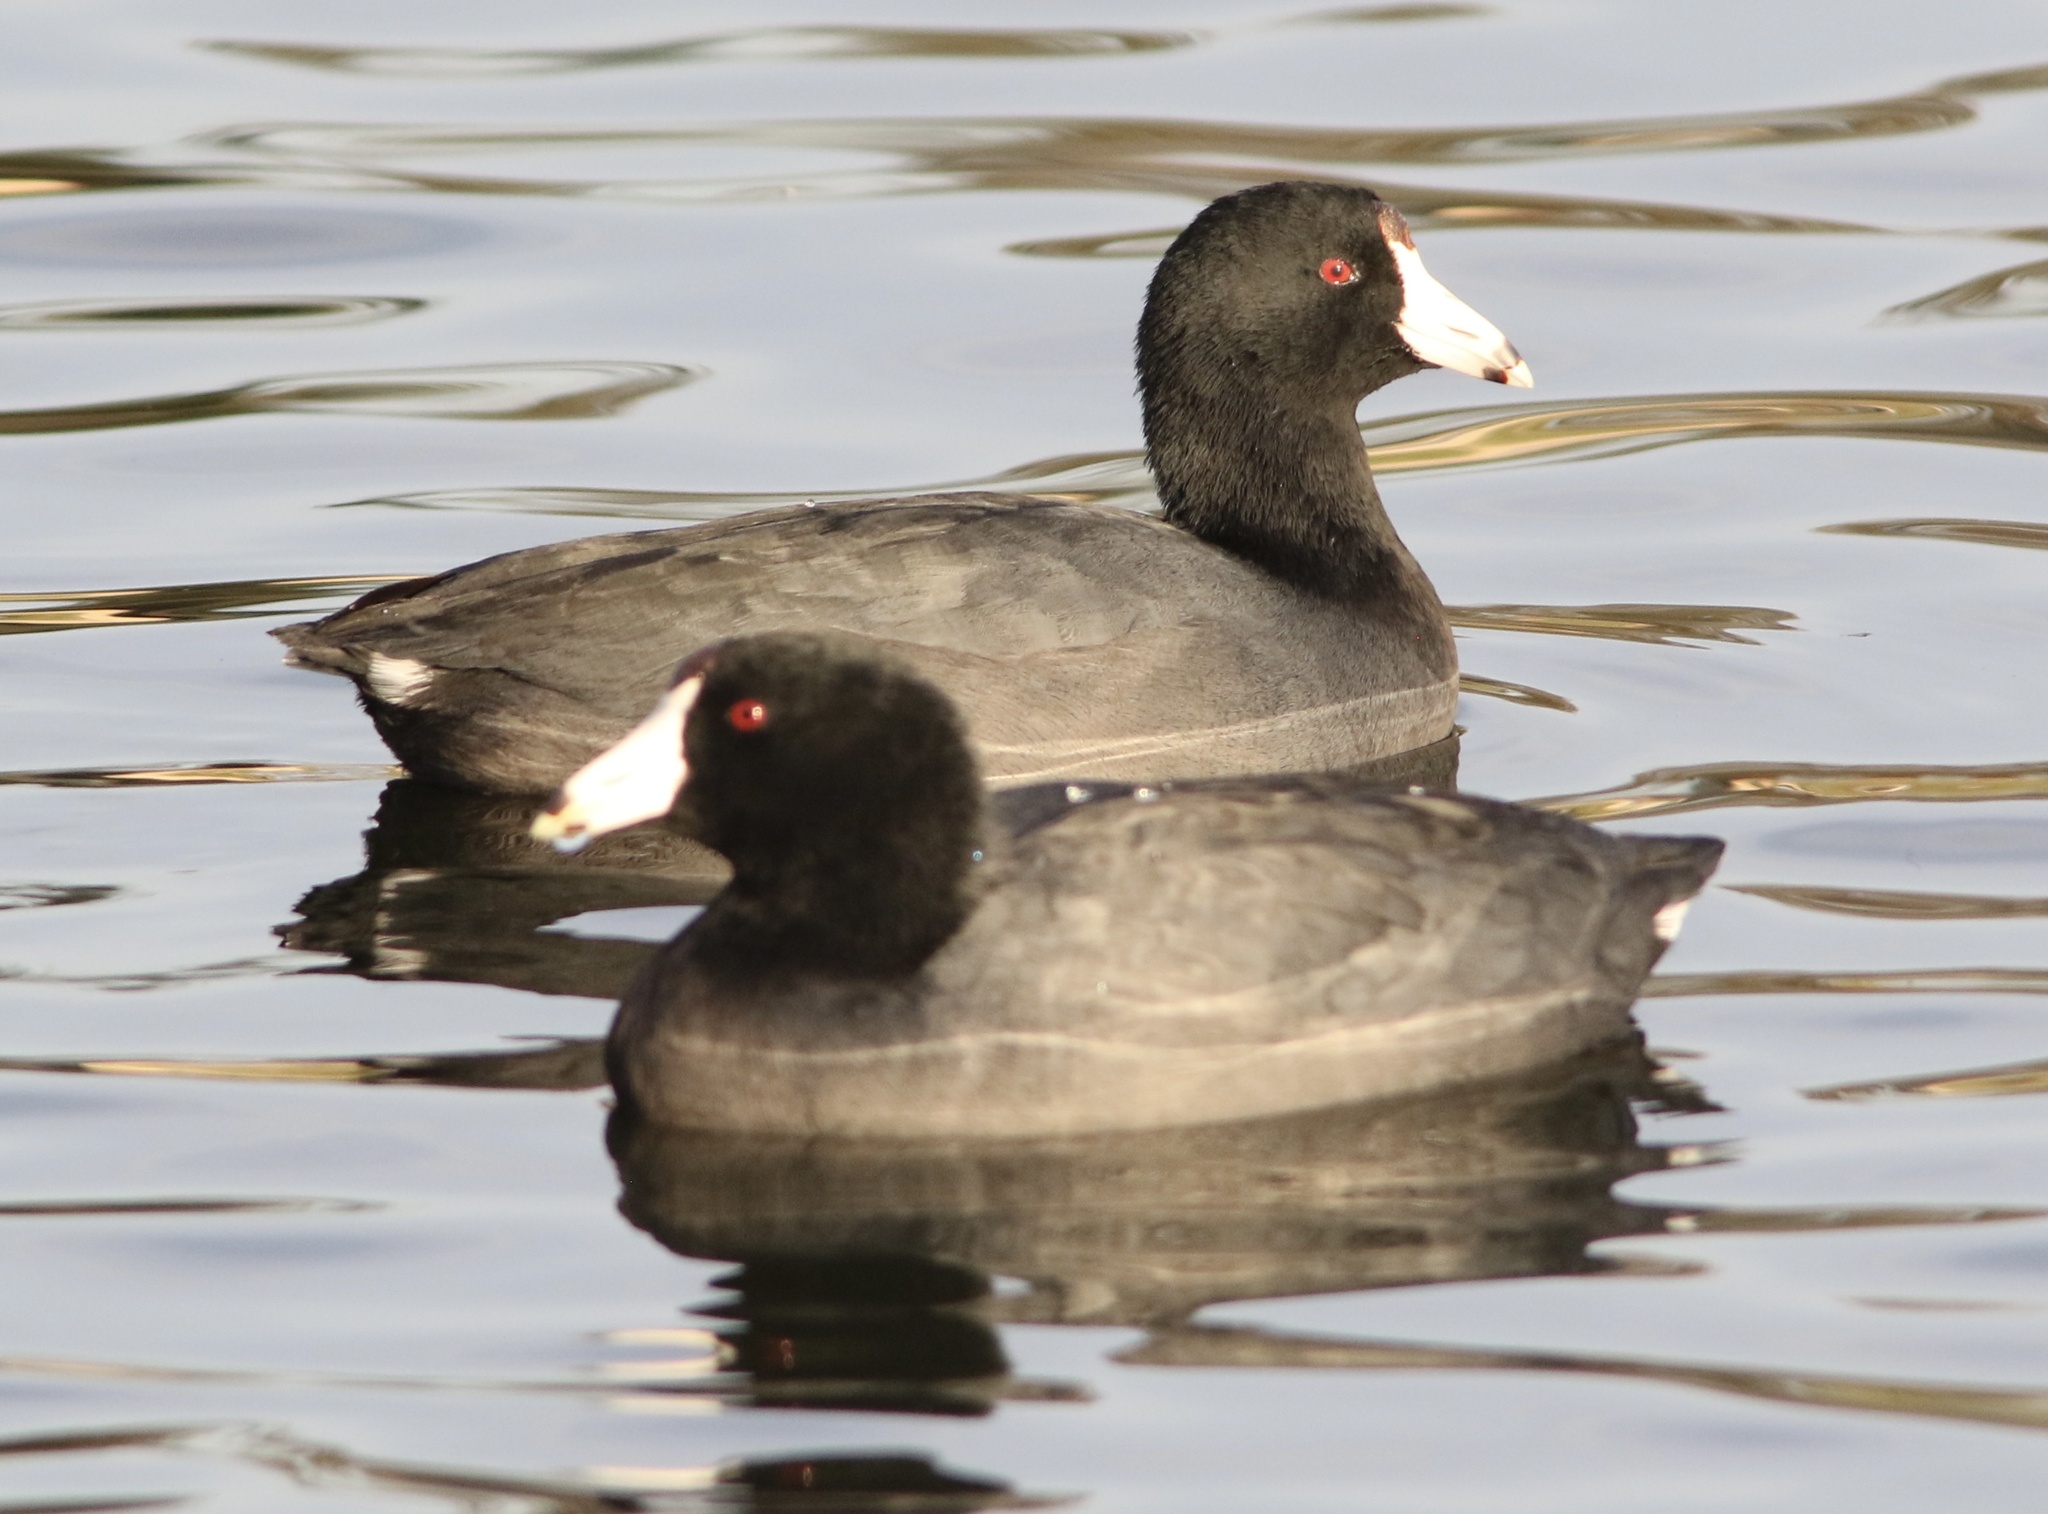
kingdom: Animalia
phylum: Chordata
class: Aves
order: Gruiformes
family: Rallidae
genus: Fulica
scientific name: Fulica americana
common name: American coot
